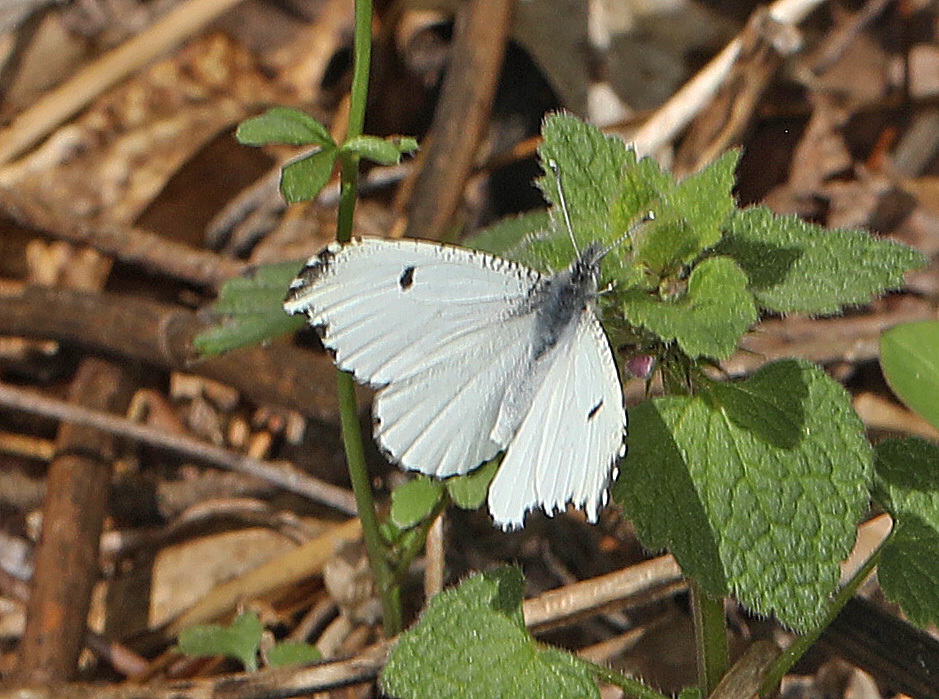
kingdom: Animalia
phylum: Arthropoda
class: Insecta
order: Lepidoptera
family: Pieridae
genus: Anthocharis
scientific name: Anthocharis midea
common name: Falcate orangetip
